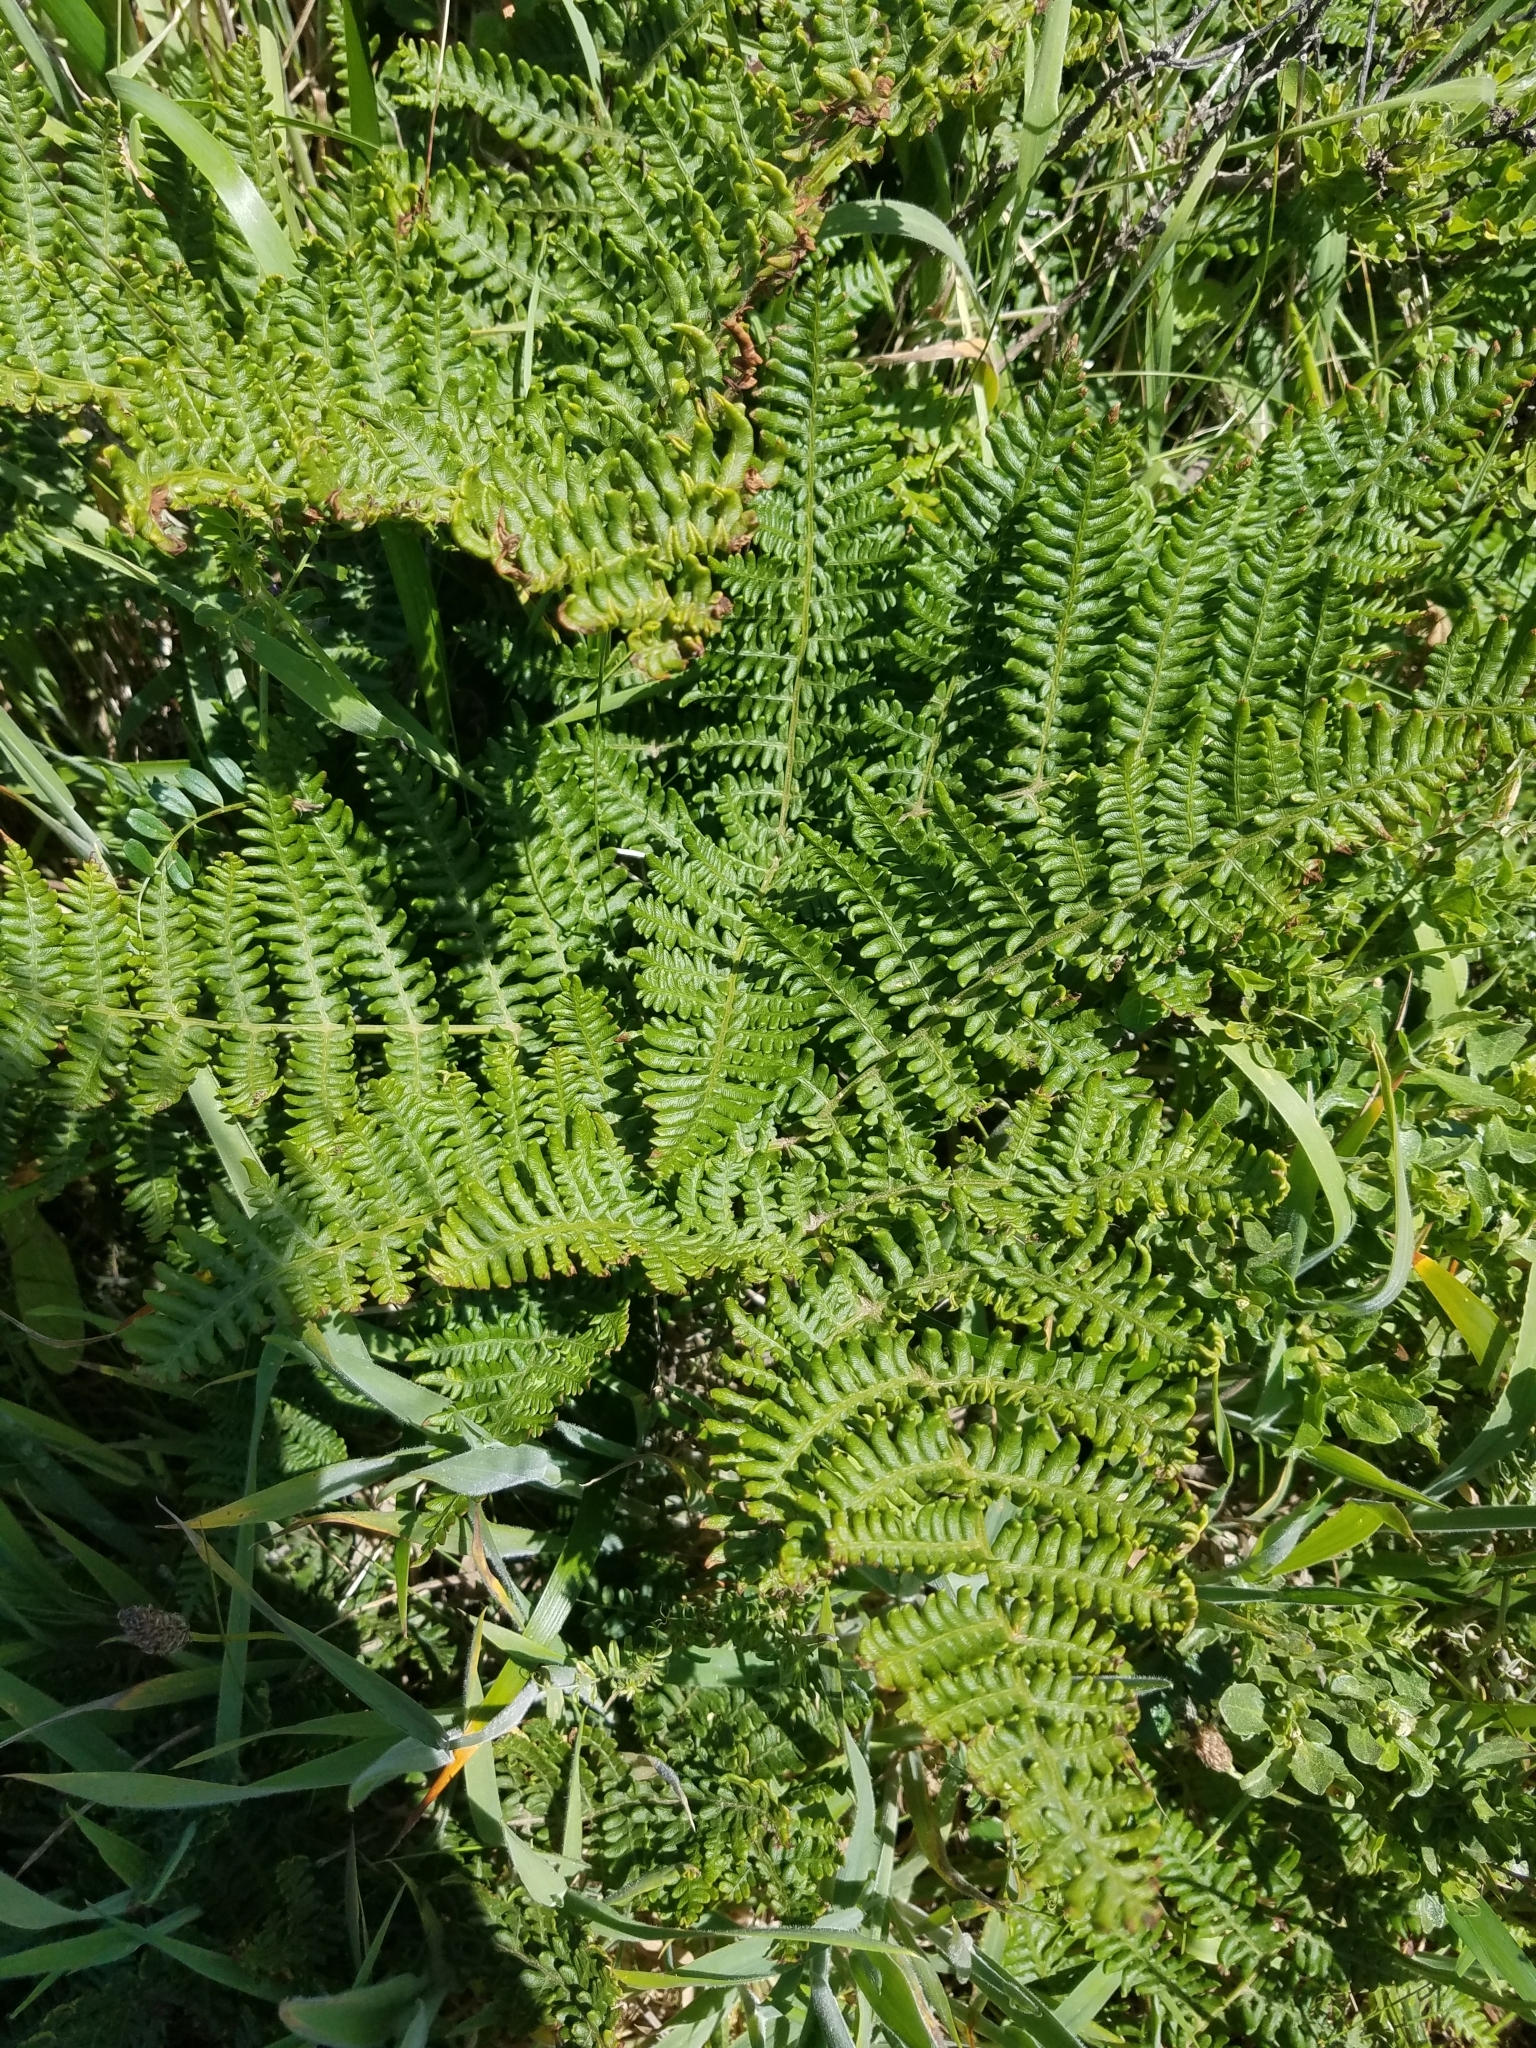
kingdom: Plantae
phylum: Tracheophyta
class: Polypodiopsida
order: Polypodiales
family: Dennstaedtiaceae
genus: Pteridium
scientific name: Pteridium aquilinum
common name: Bracken
